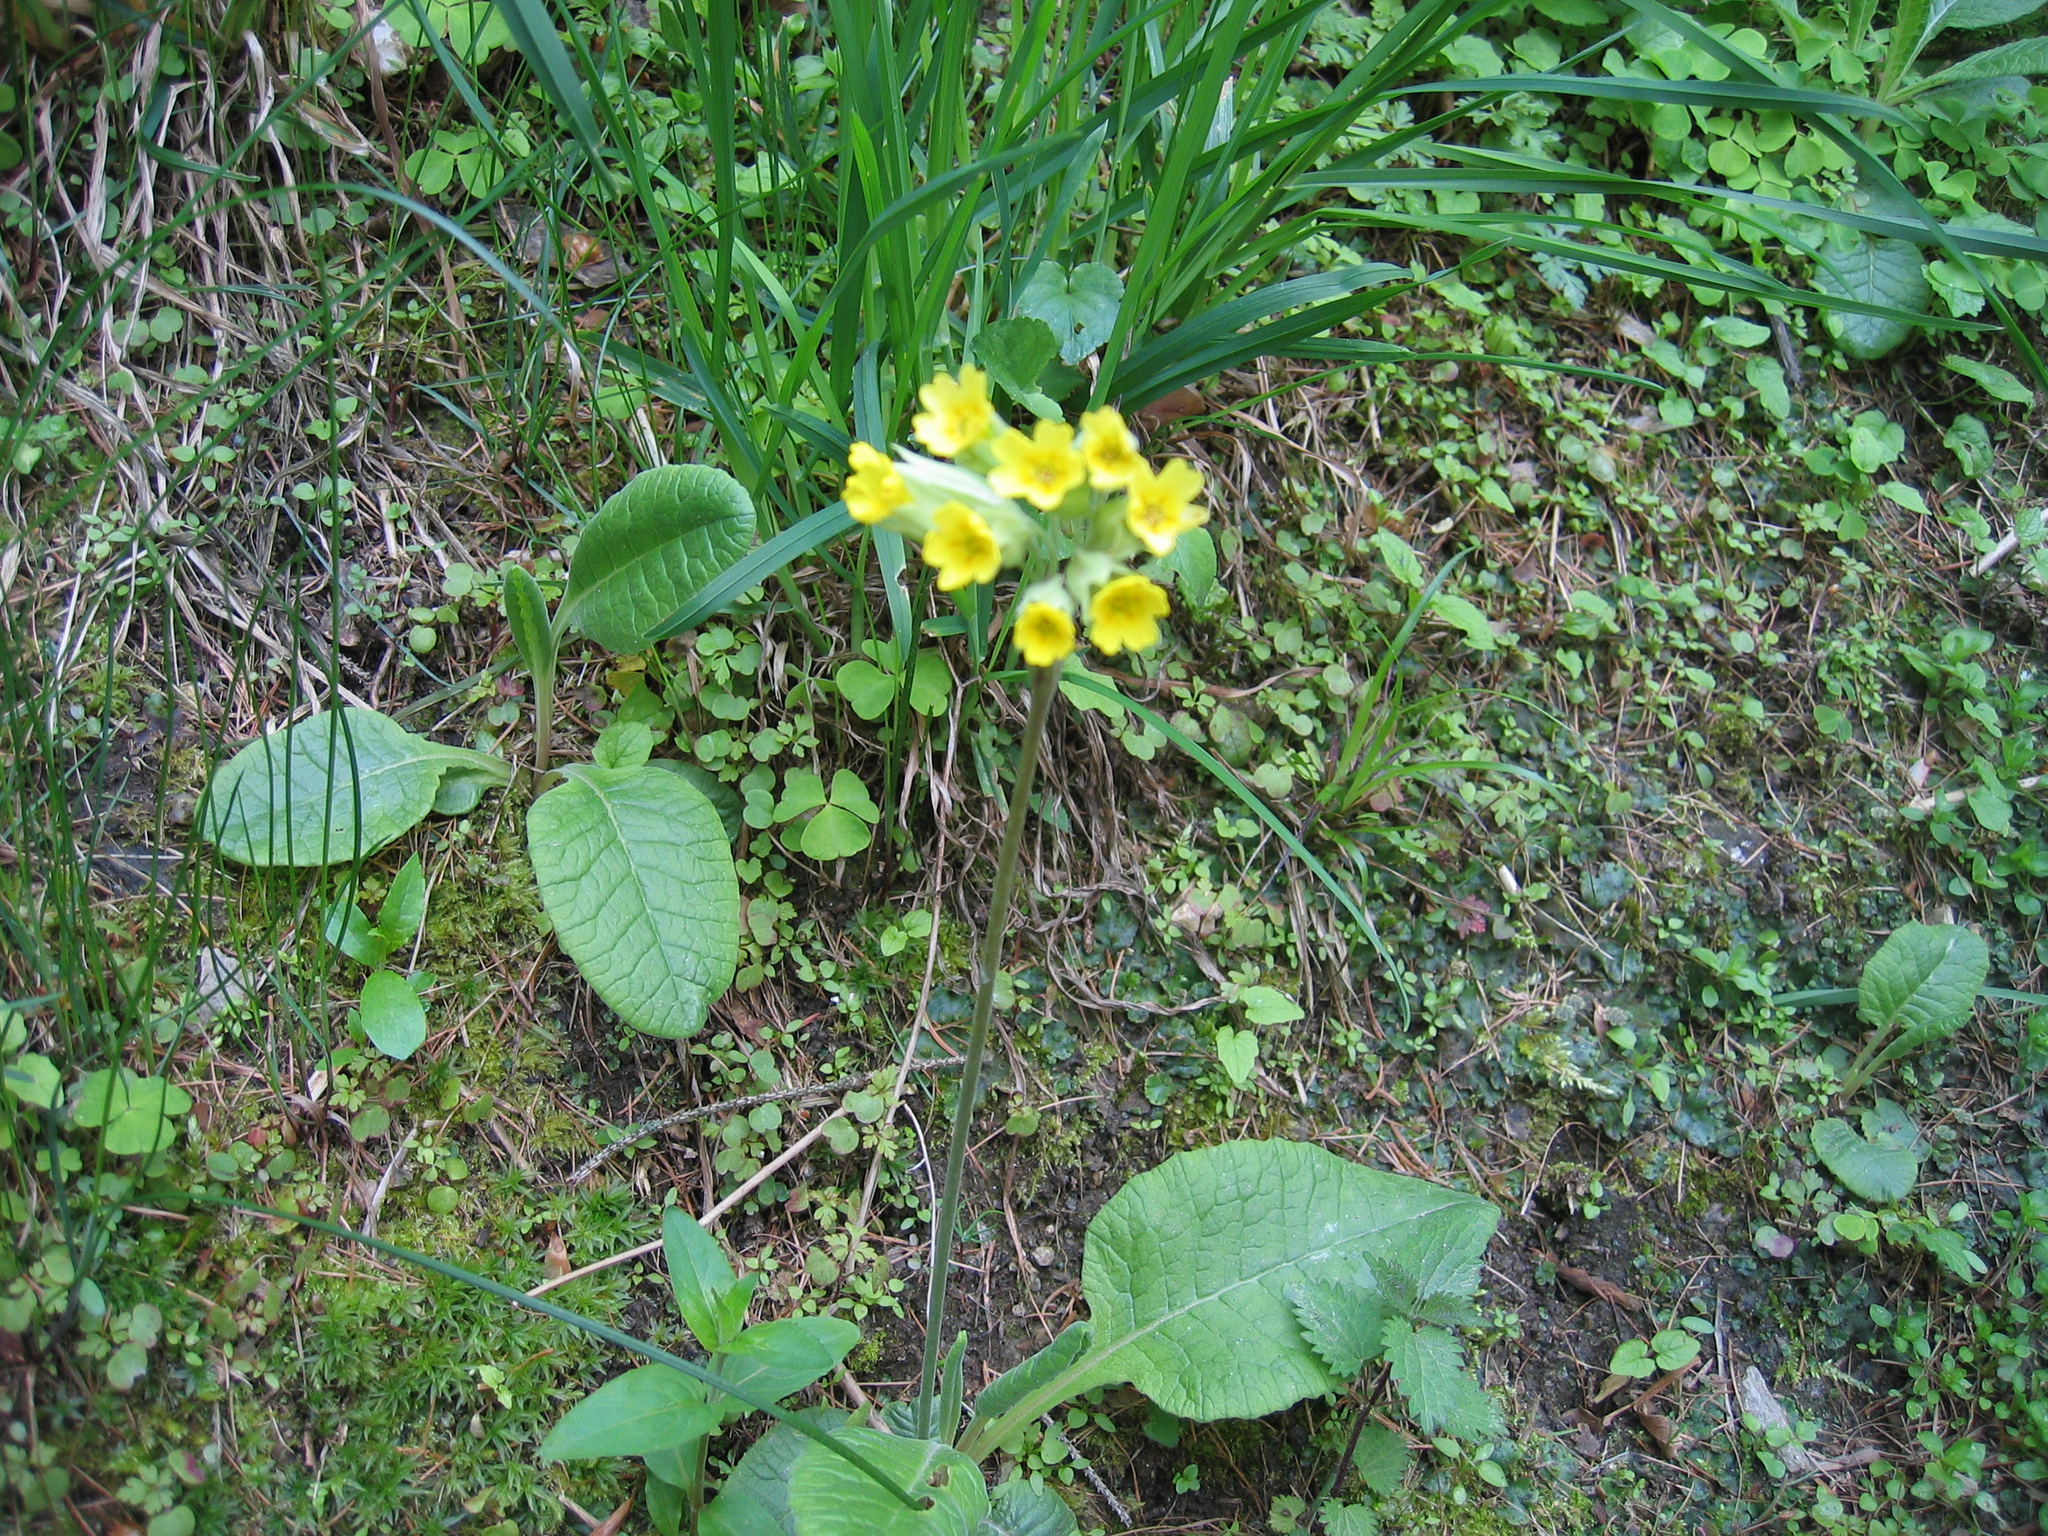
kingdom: Plantae
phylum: Tracheophyta
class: Magnoliopsida
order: Ericales
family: Primulaceae
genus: Primula
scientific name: Primula veris
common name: Cowslip
